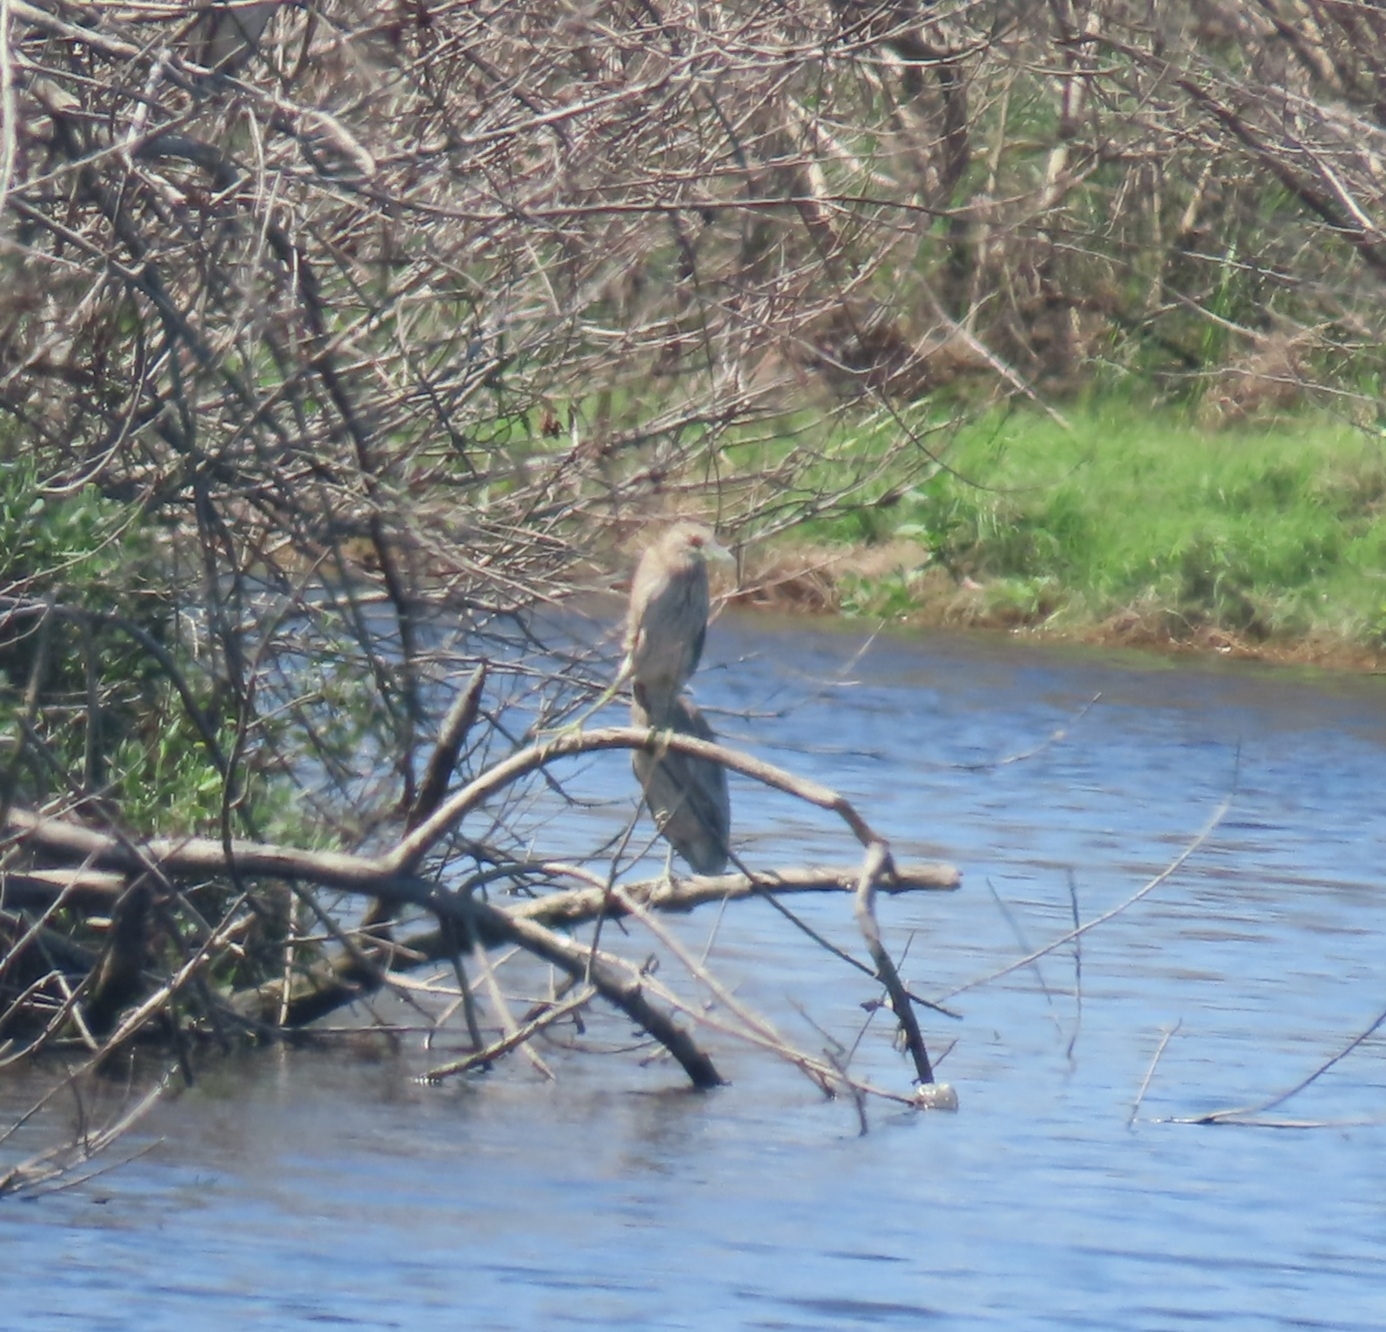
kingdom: Animalia
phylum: Chordata
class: Aves
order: Pelecaniformes
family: Ardeidae
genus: Nycticorax
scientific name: Nycticorax nycticorax
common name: Black-crowned night heron
